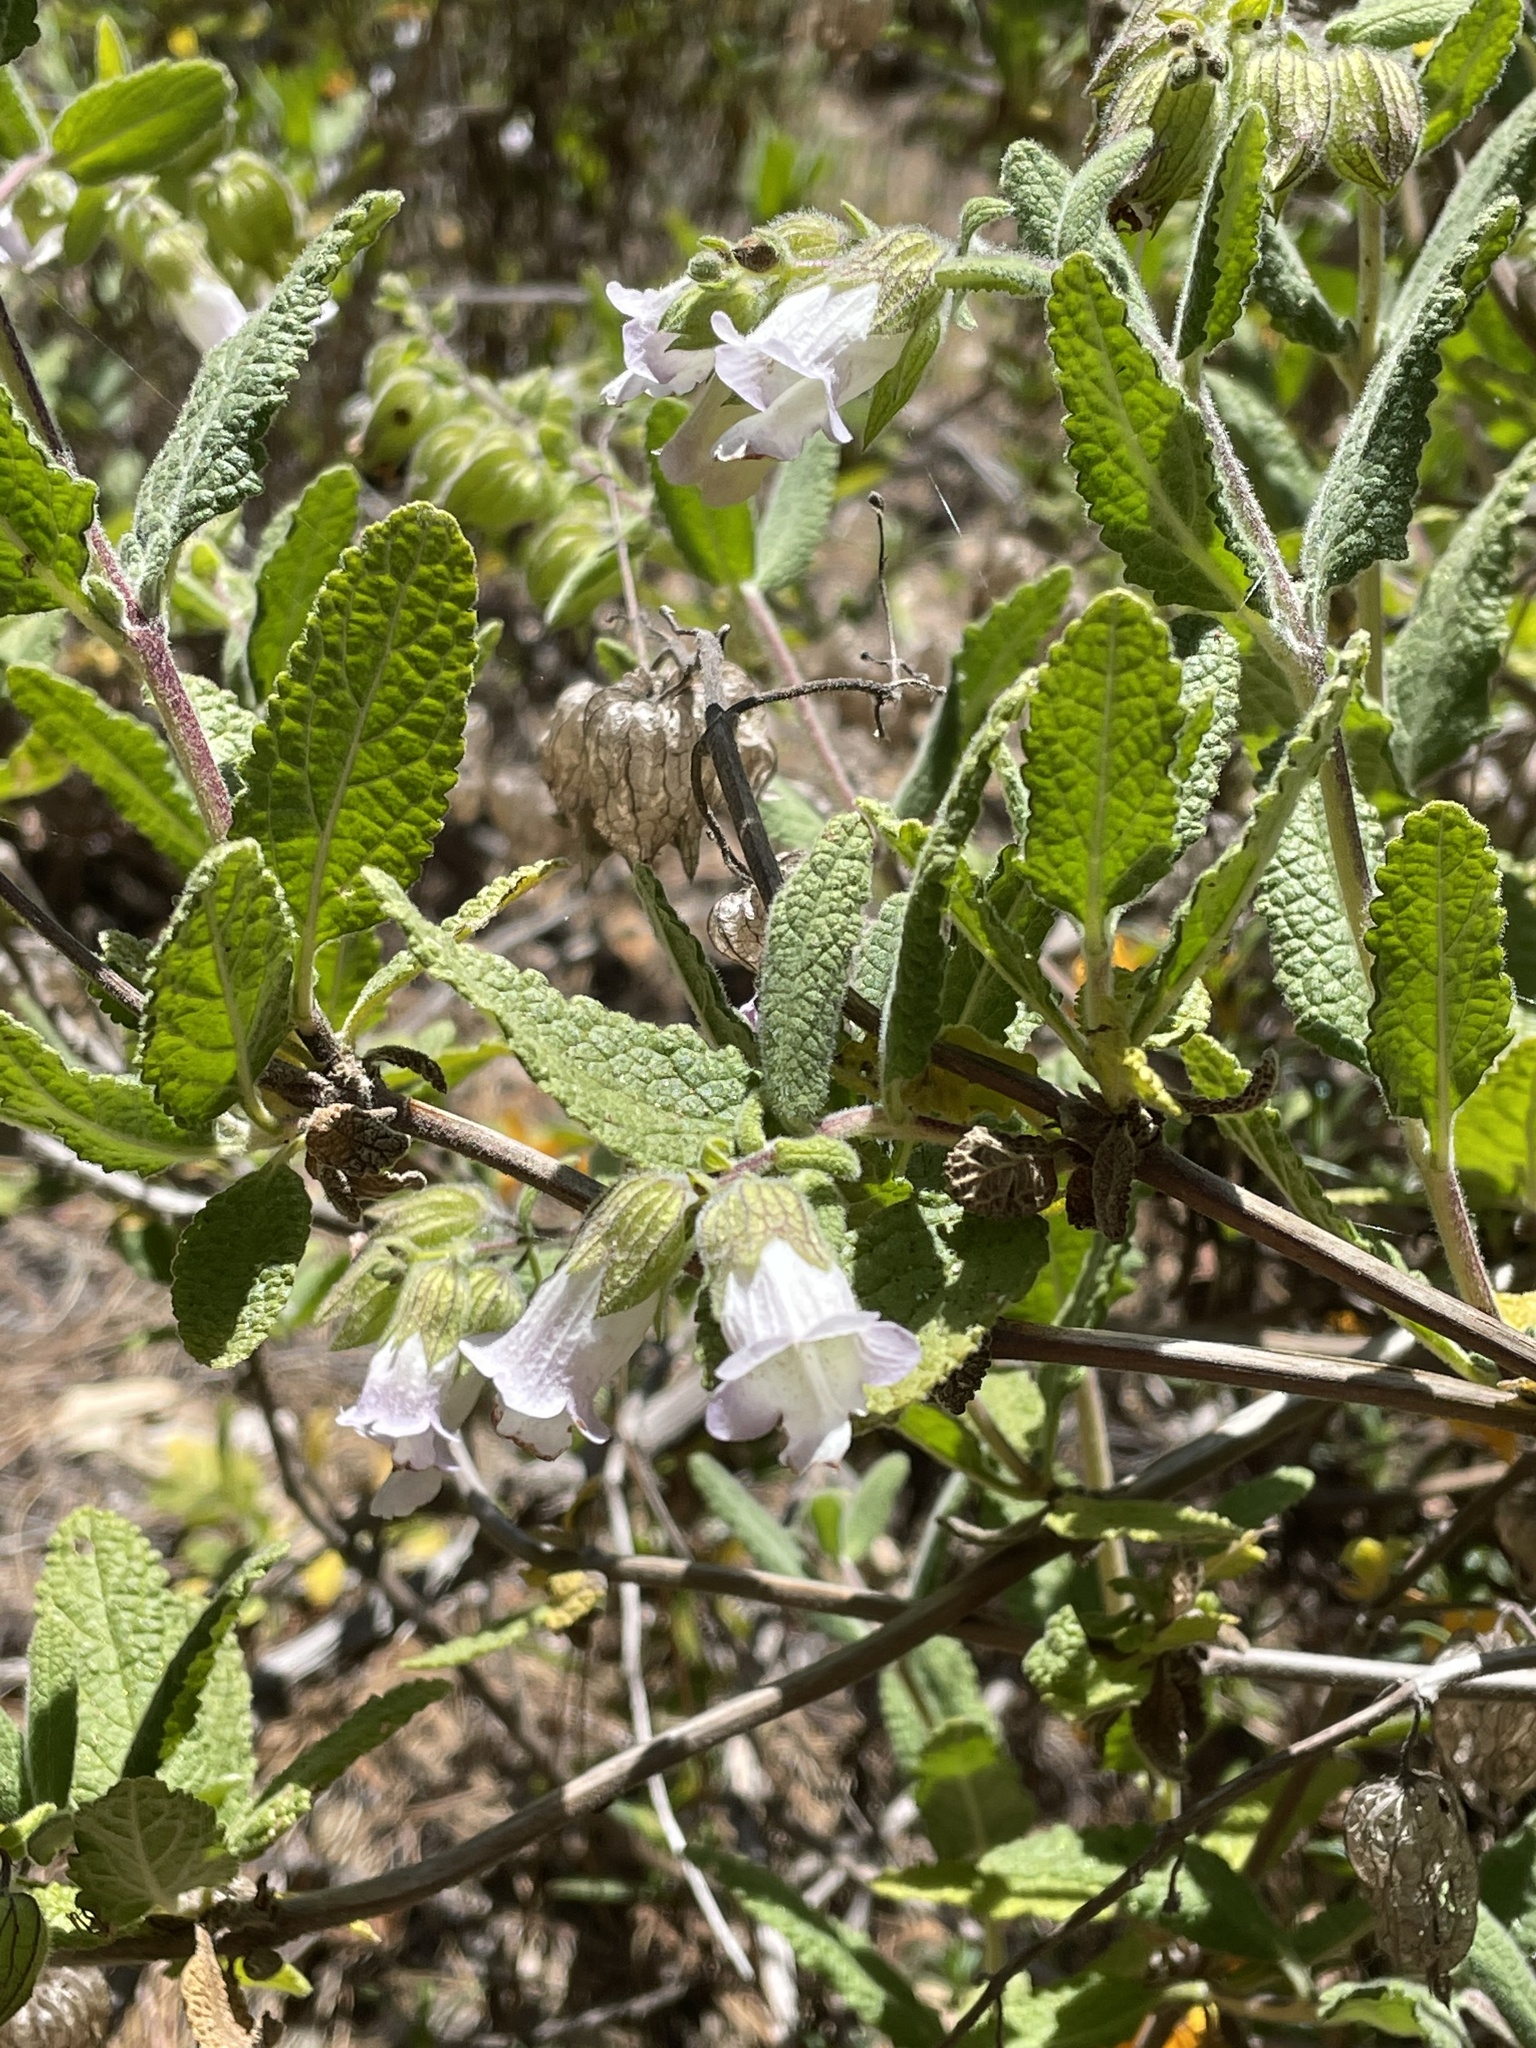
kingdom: Plantae
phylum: Tracheophyta
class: Magnoliopsida
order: Lamiales
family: Lamiaceae
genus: Lepechinia
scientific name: Lepechinia calycina
